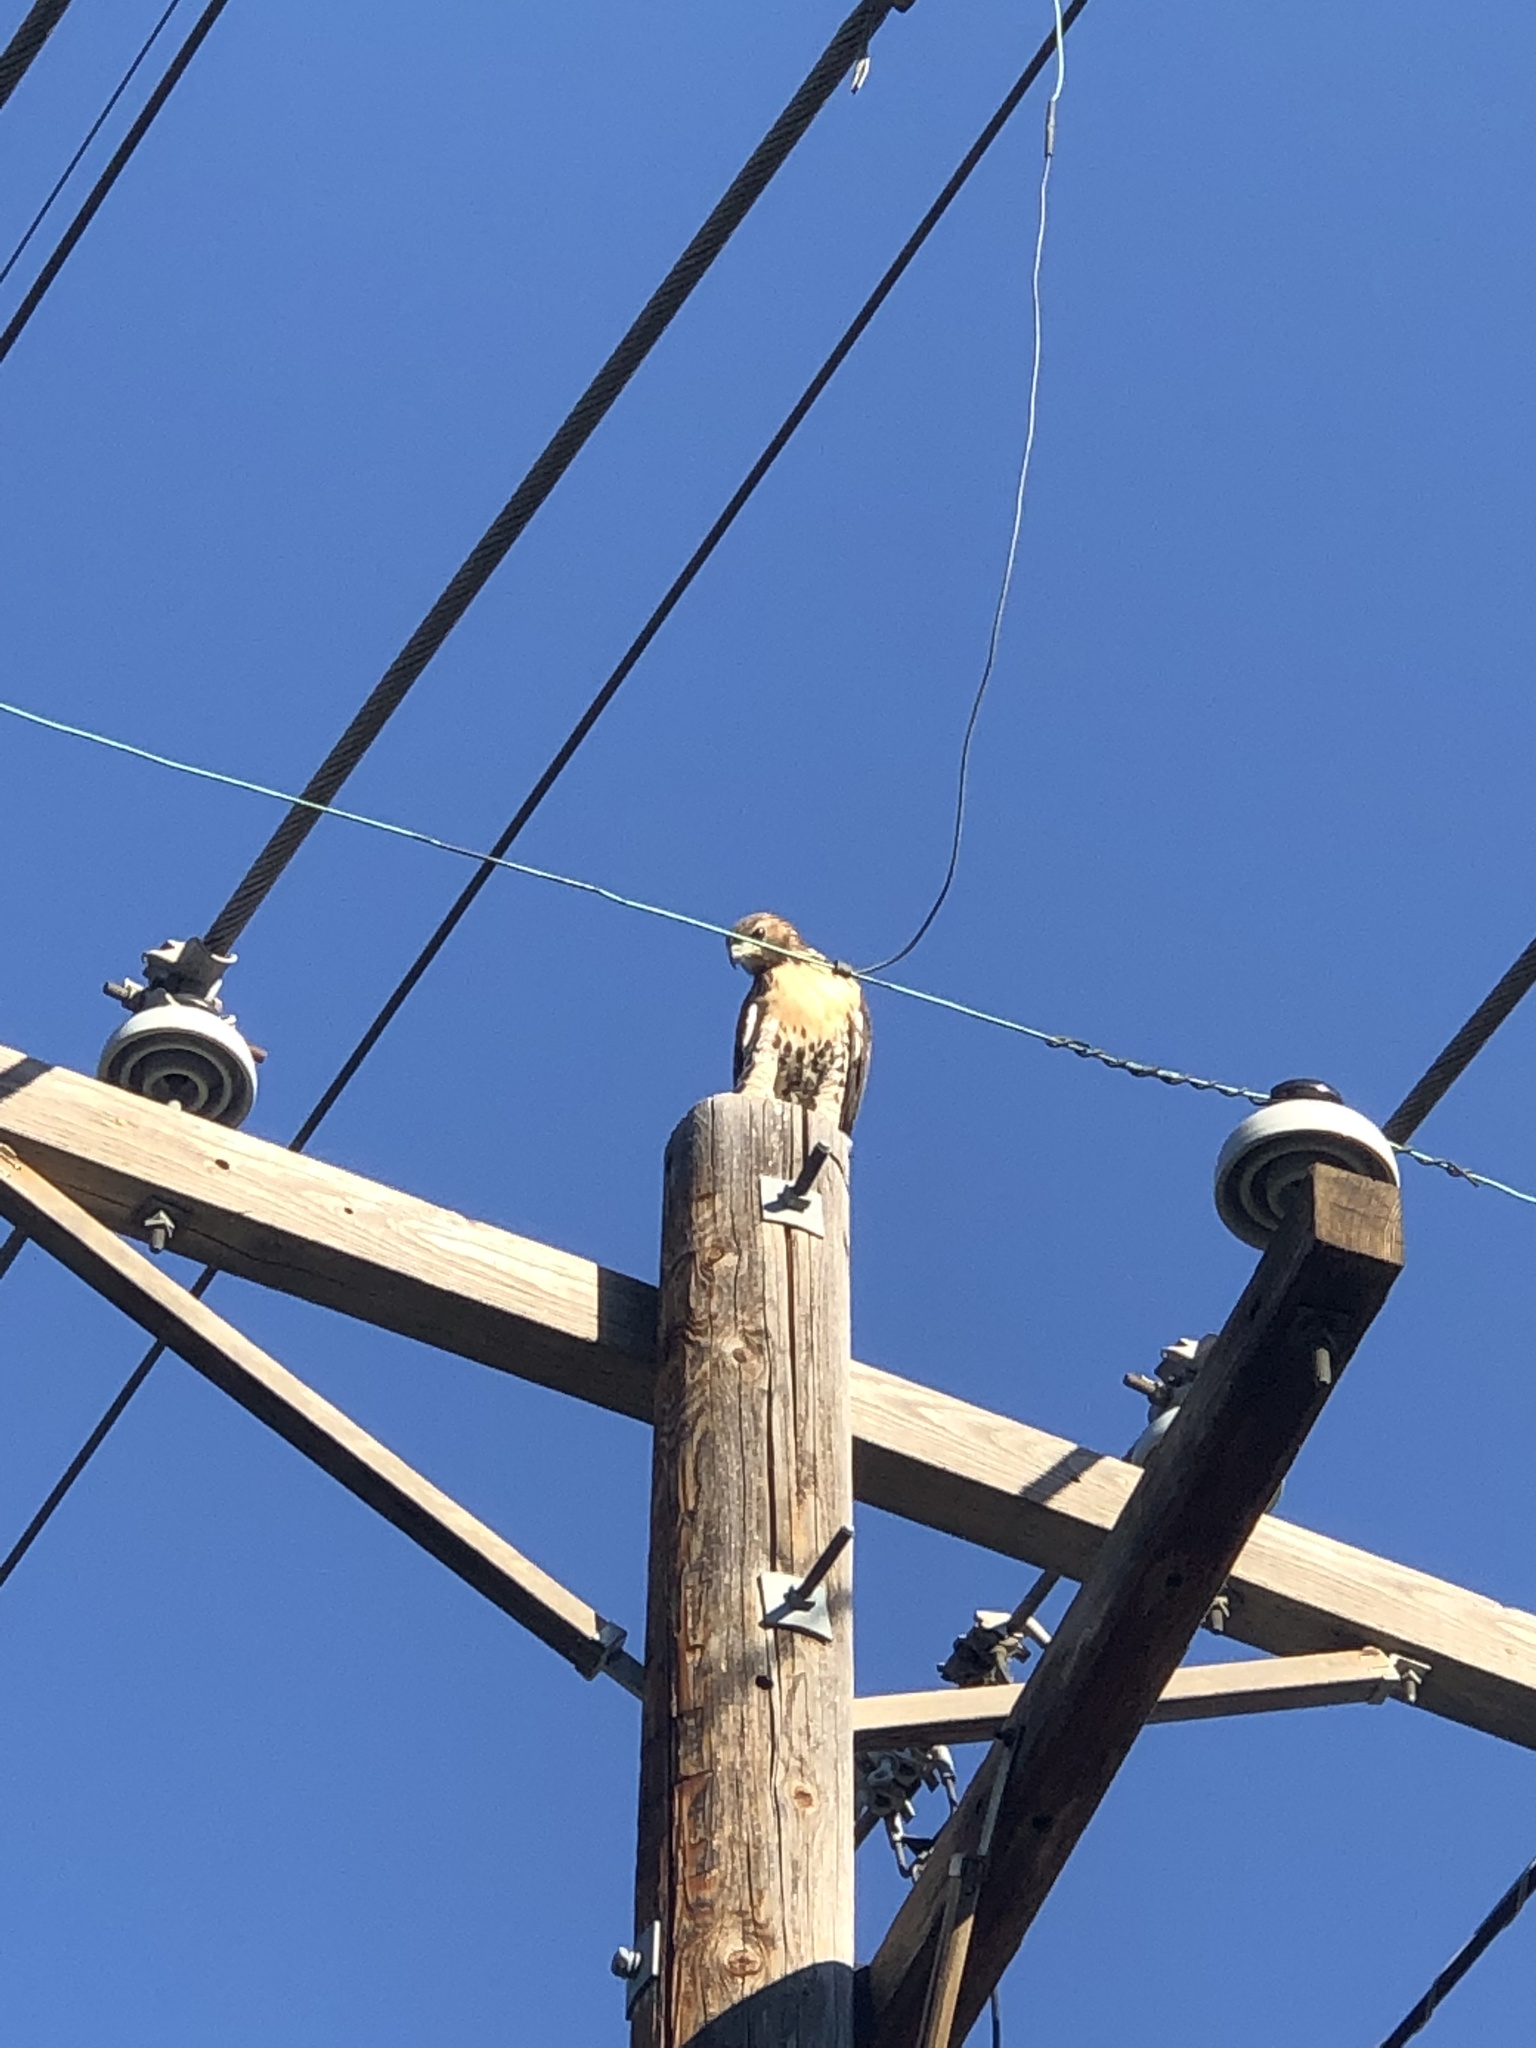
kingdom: Animalia
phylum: Chordata
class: Aves
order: Accipitriformes
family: Accipitridae
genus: Buteo
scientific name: Buteo jamaicensis
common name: Red-tailed hawk
